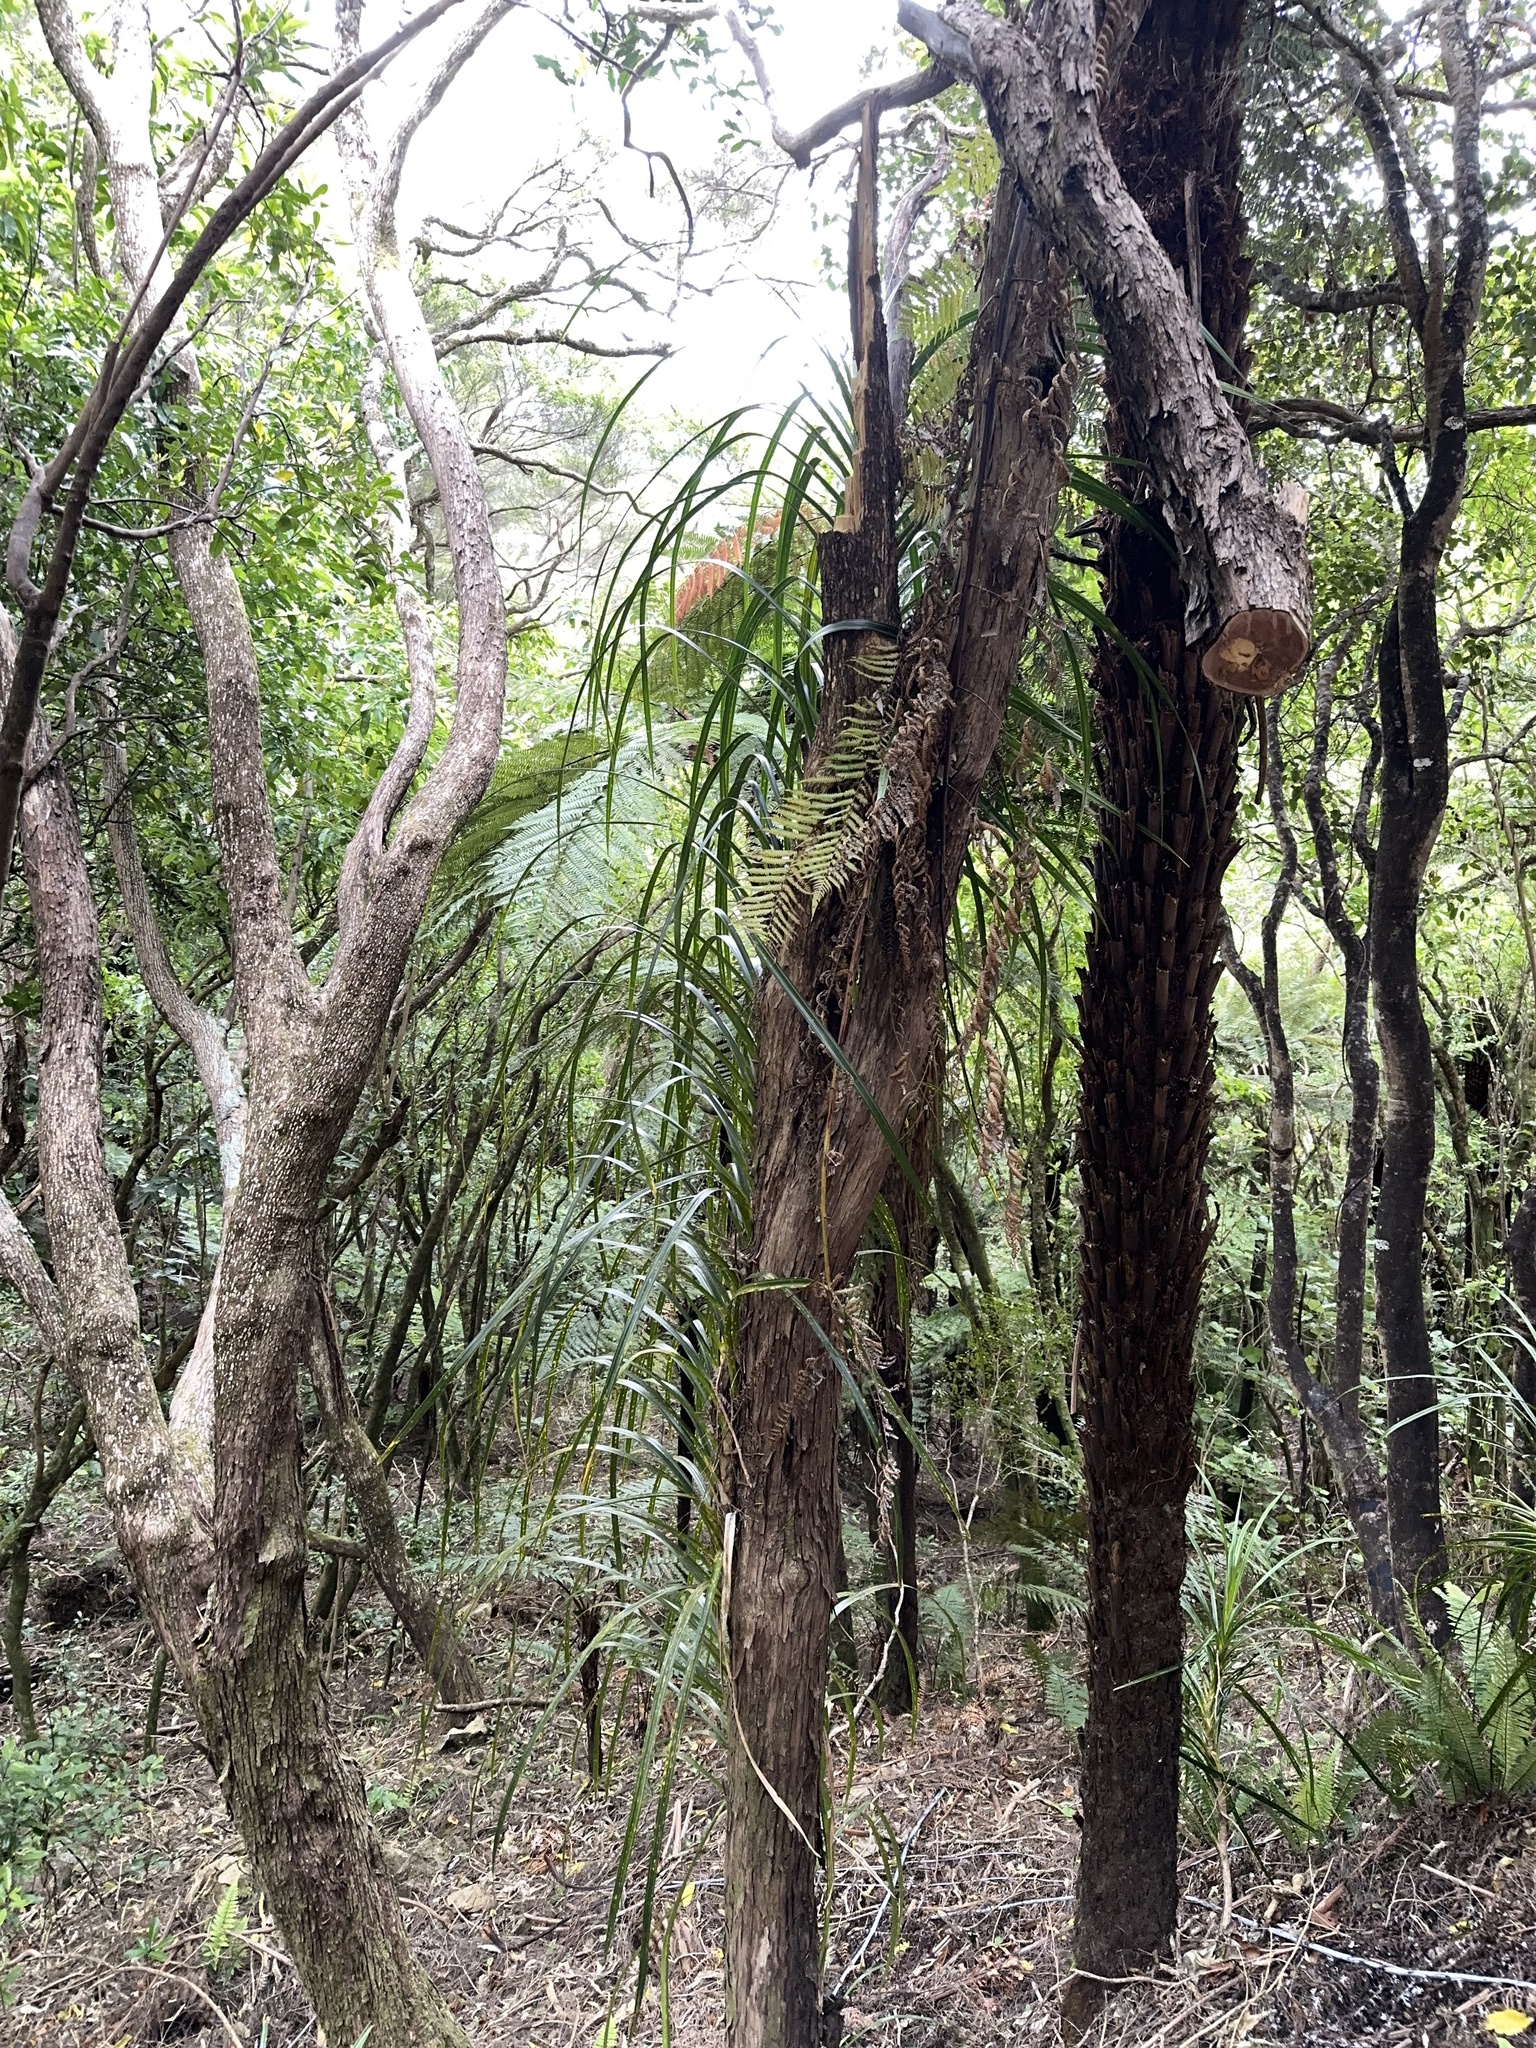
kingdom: Plantae
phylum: Tracheophyta
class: Liliopsida
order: Pandanales
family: Pandanaceae
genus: Freycinetia
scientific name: Freycinetia banksii
